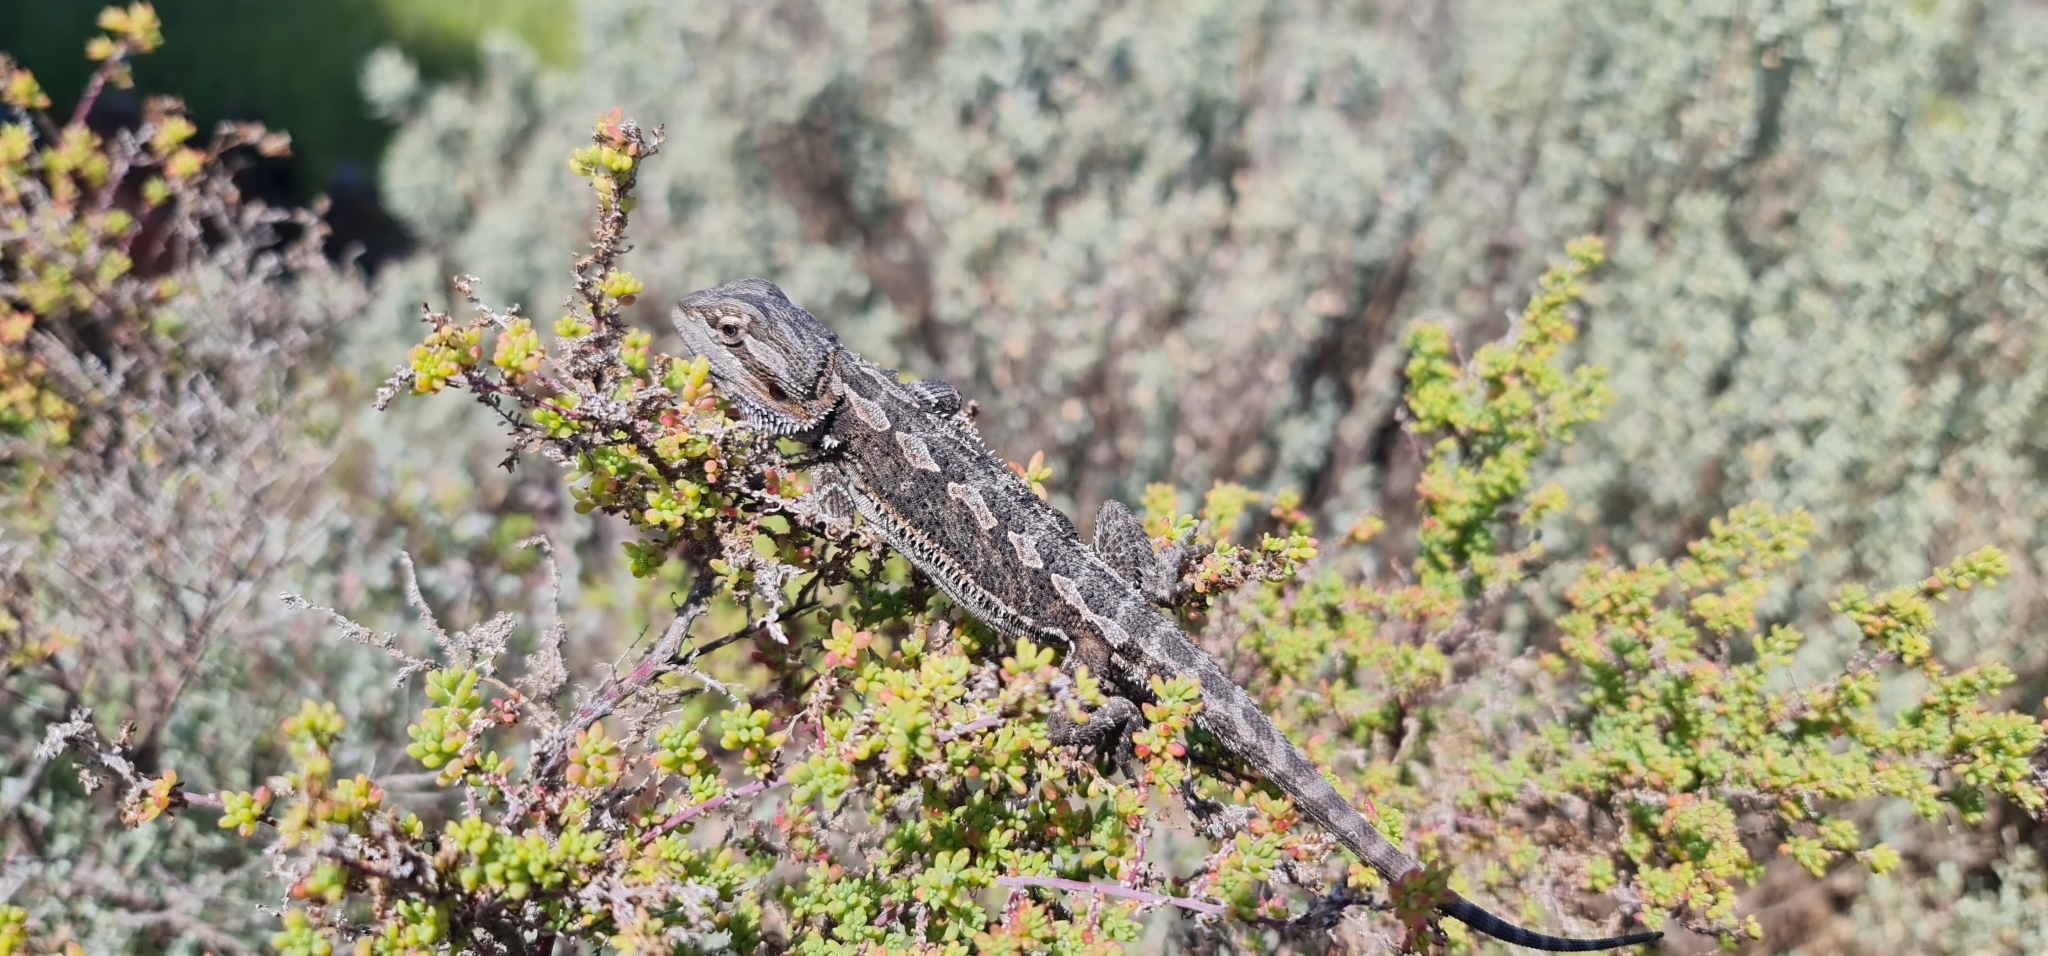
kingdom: Animalia
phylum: Chordata
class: Squamata
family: Agamidae
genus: Pogona
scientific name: Pogona vitticeps
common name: Central bearded dragon
